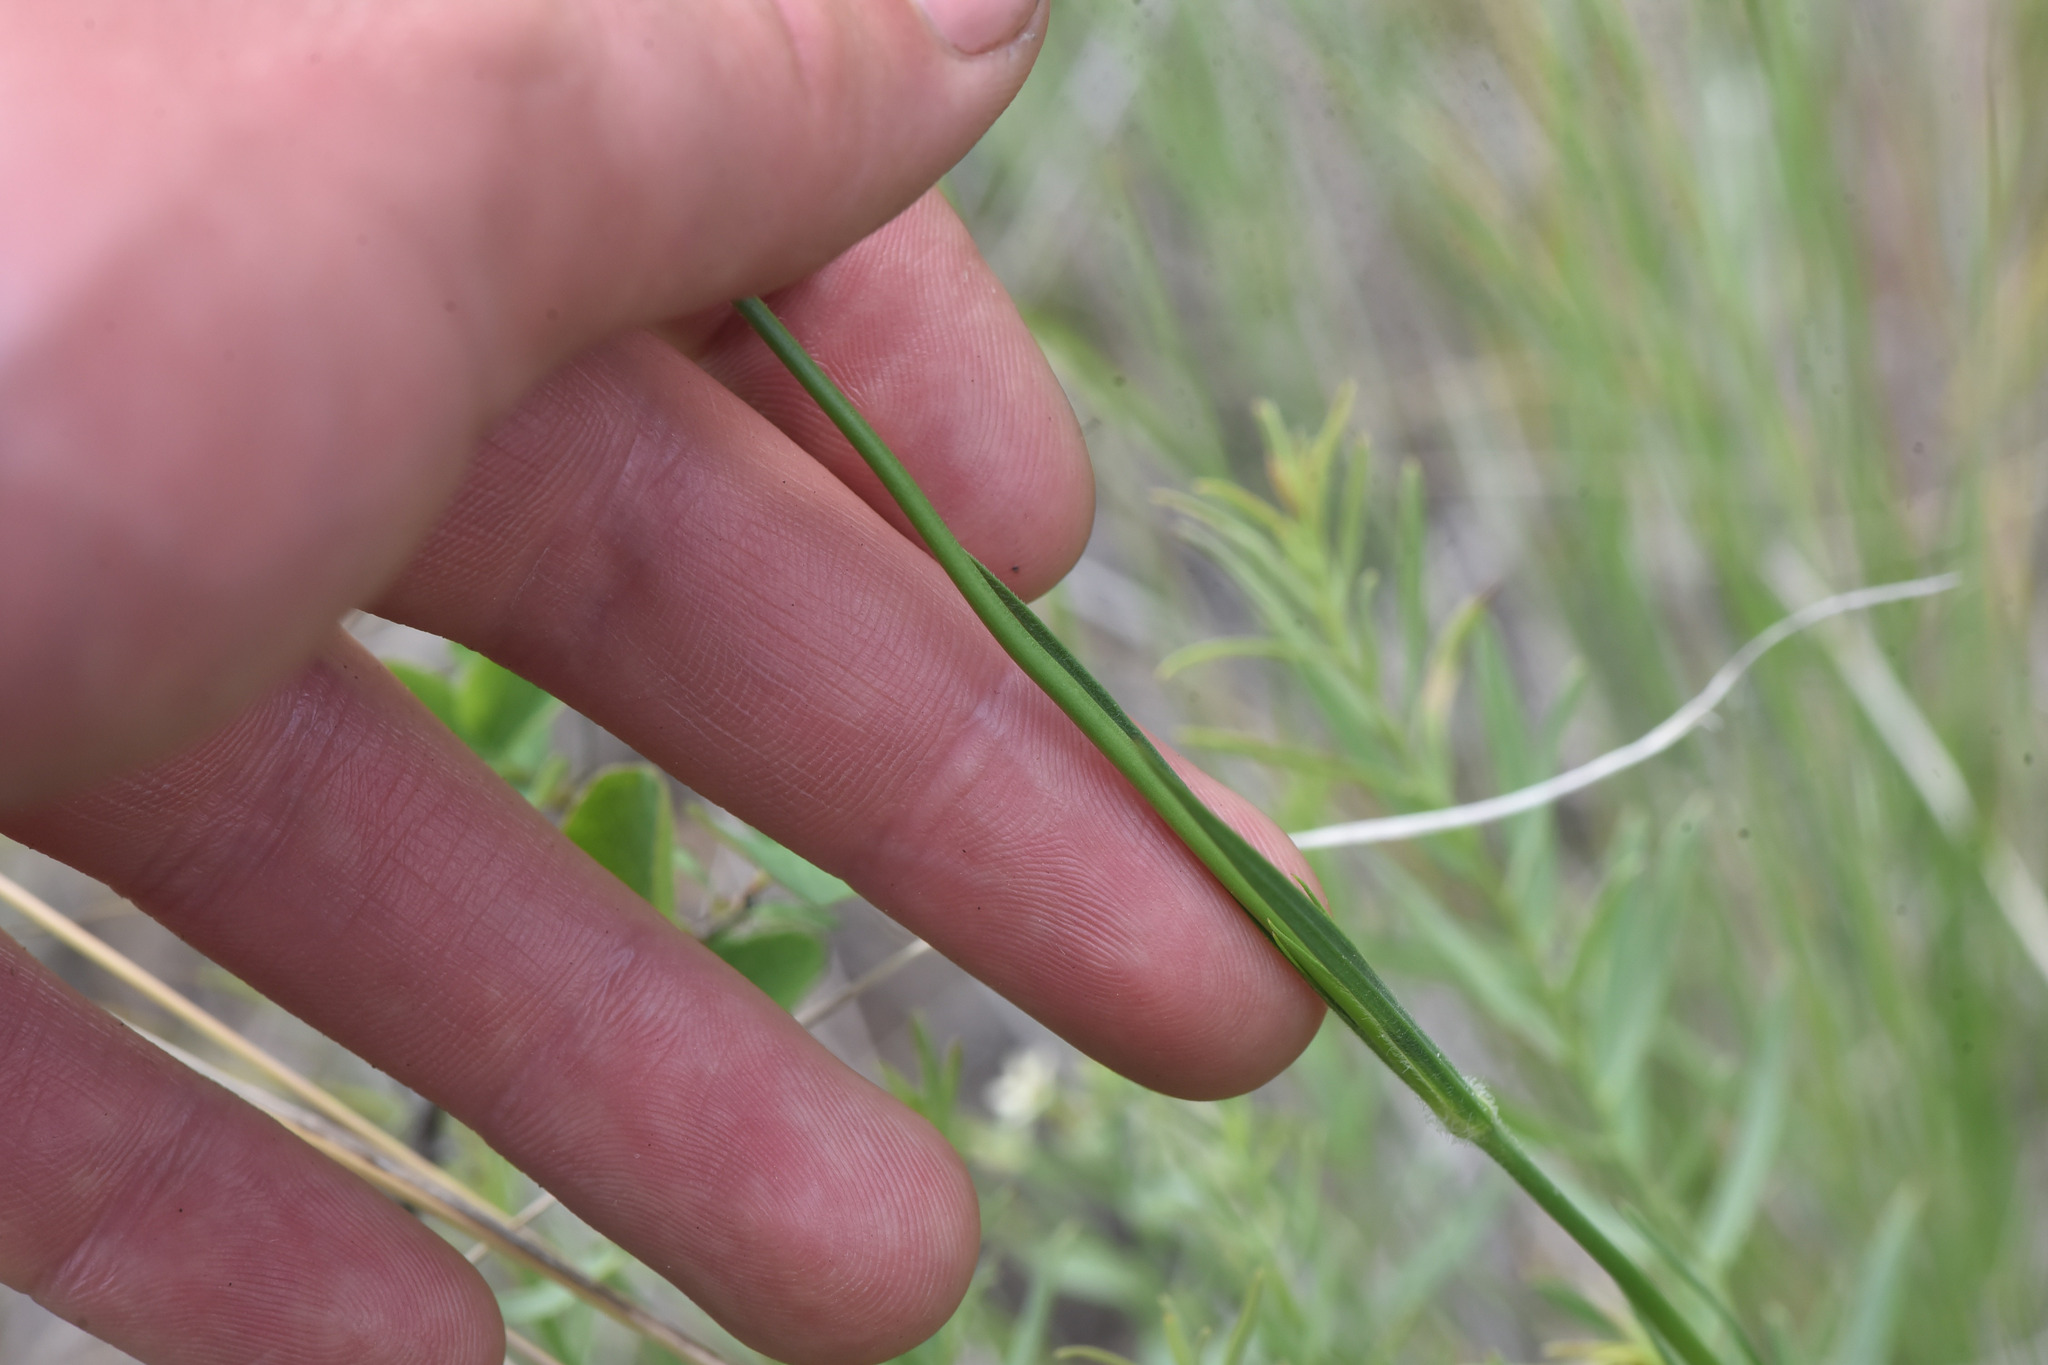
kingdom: Plantae
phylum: Tracheophyta
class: Magnoliopsida
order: Caryophyllales
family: Caryophyllaceae
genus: Dianthus
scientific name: Dianthus armeria
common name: Deptford pink
